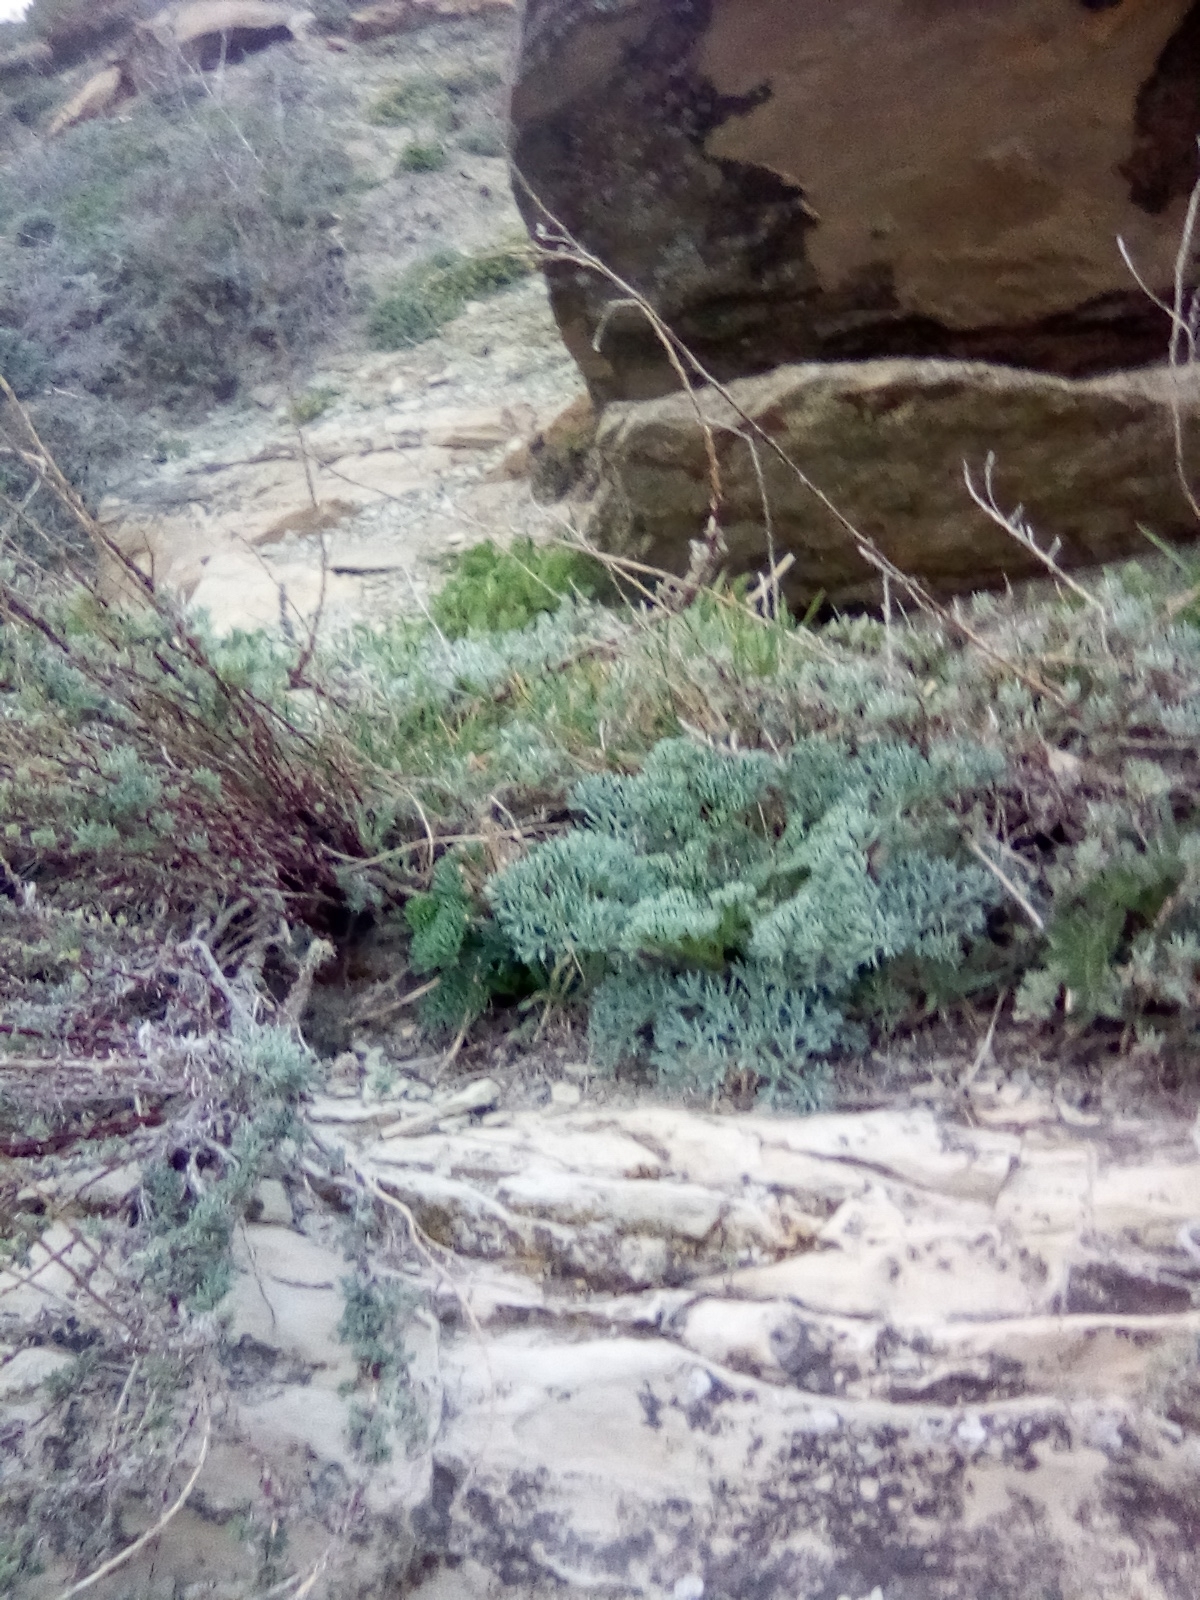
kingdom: Plantae
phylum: Tracheophyta
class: Magnoliopsida
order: Apiales
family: Apiaceae
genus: Seseli
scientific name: Seseli ponticum
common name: Pontic seseli
